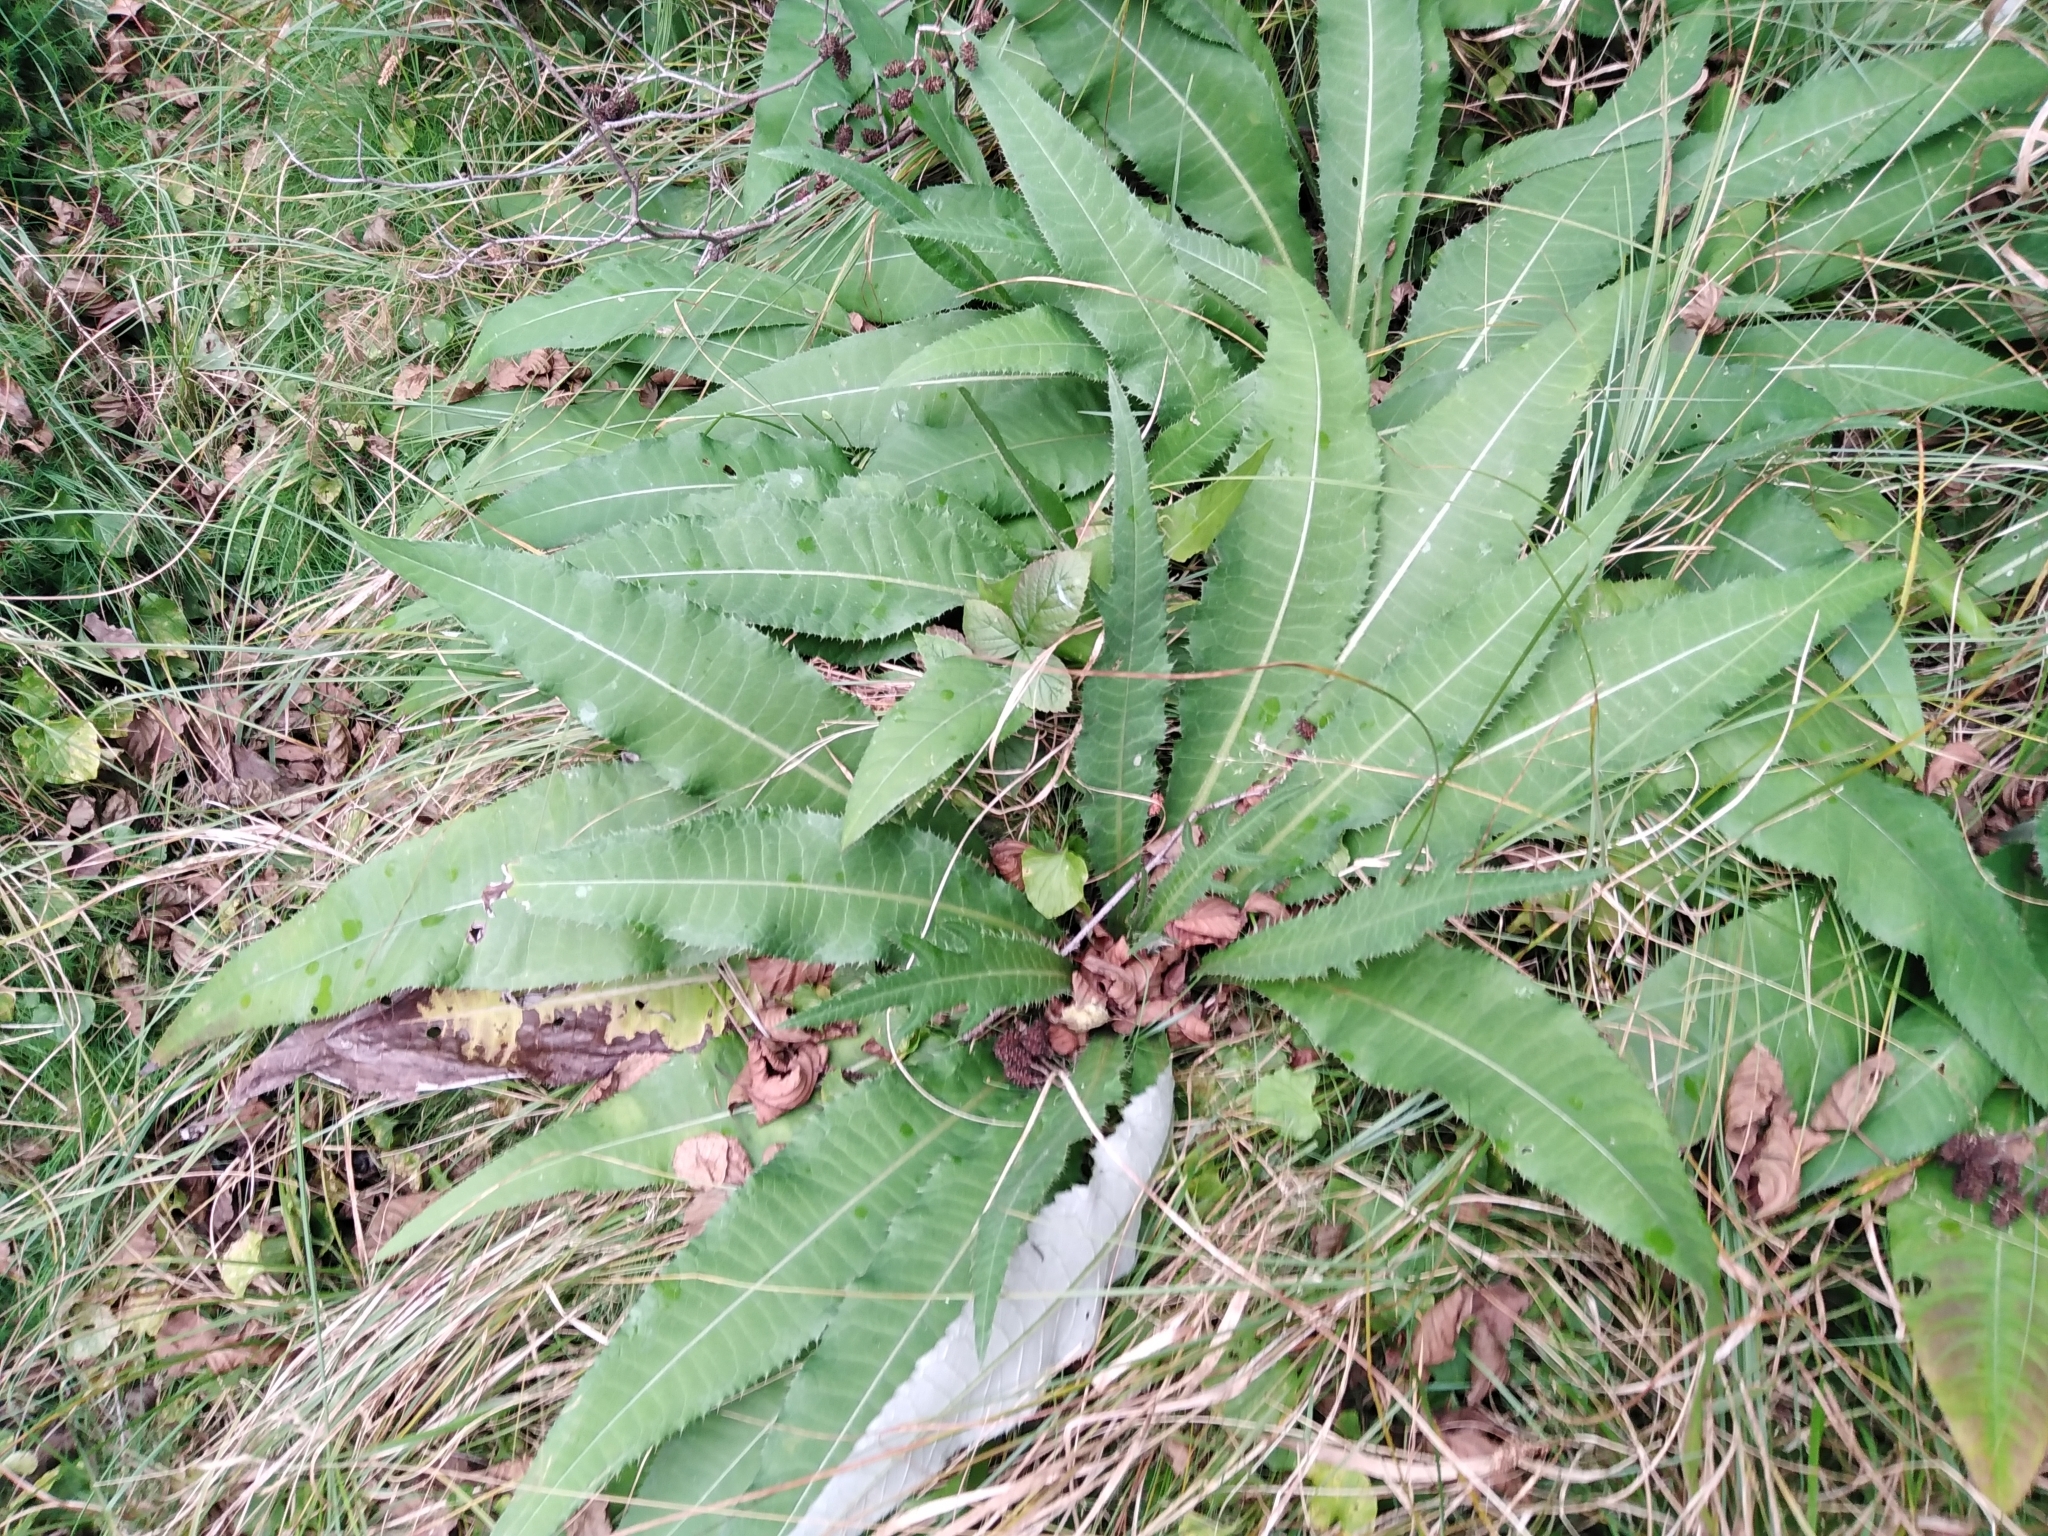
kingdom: Plantae
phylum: Tracheophyta
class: Magnoliopsida
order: Asterales
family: Asteraceae
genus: Cirsium
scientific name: Cirsium heterophyllum
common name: Melancholy thistle
